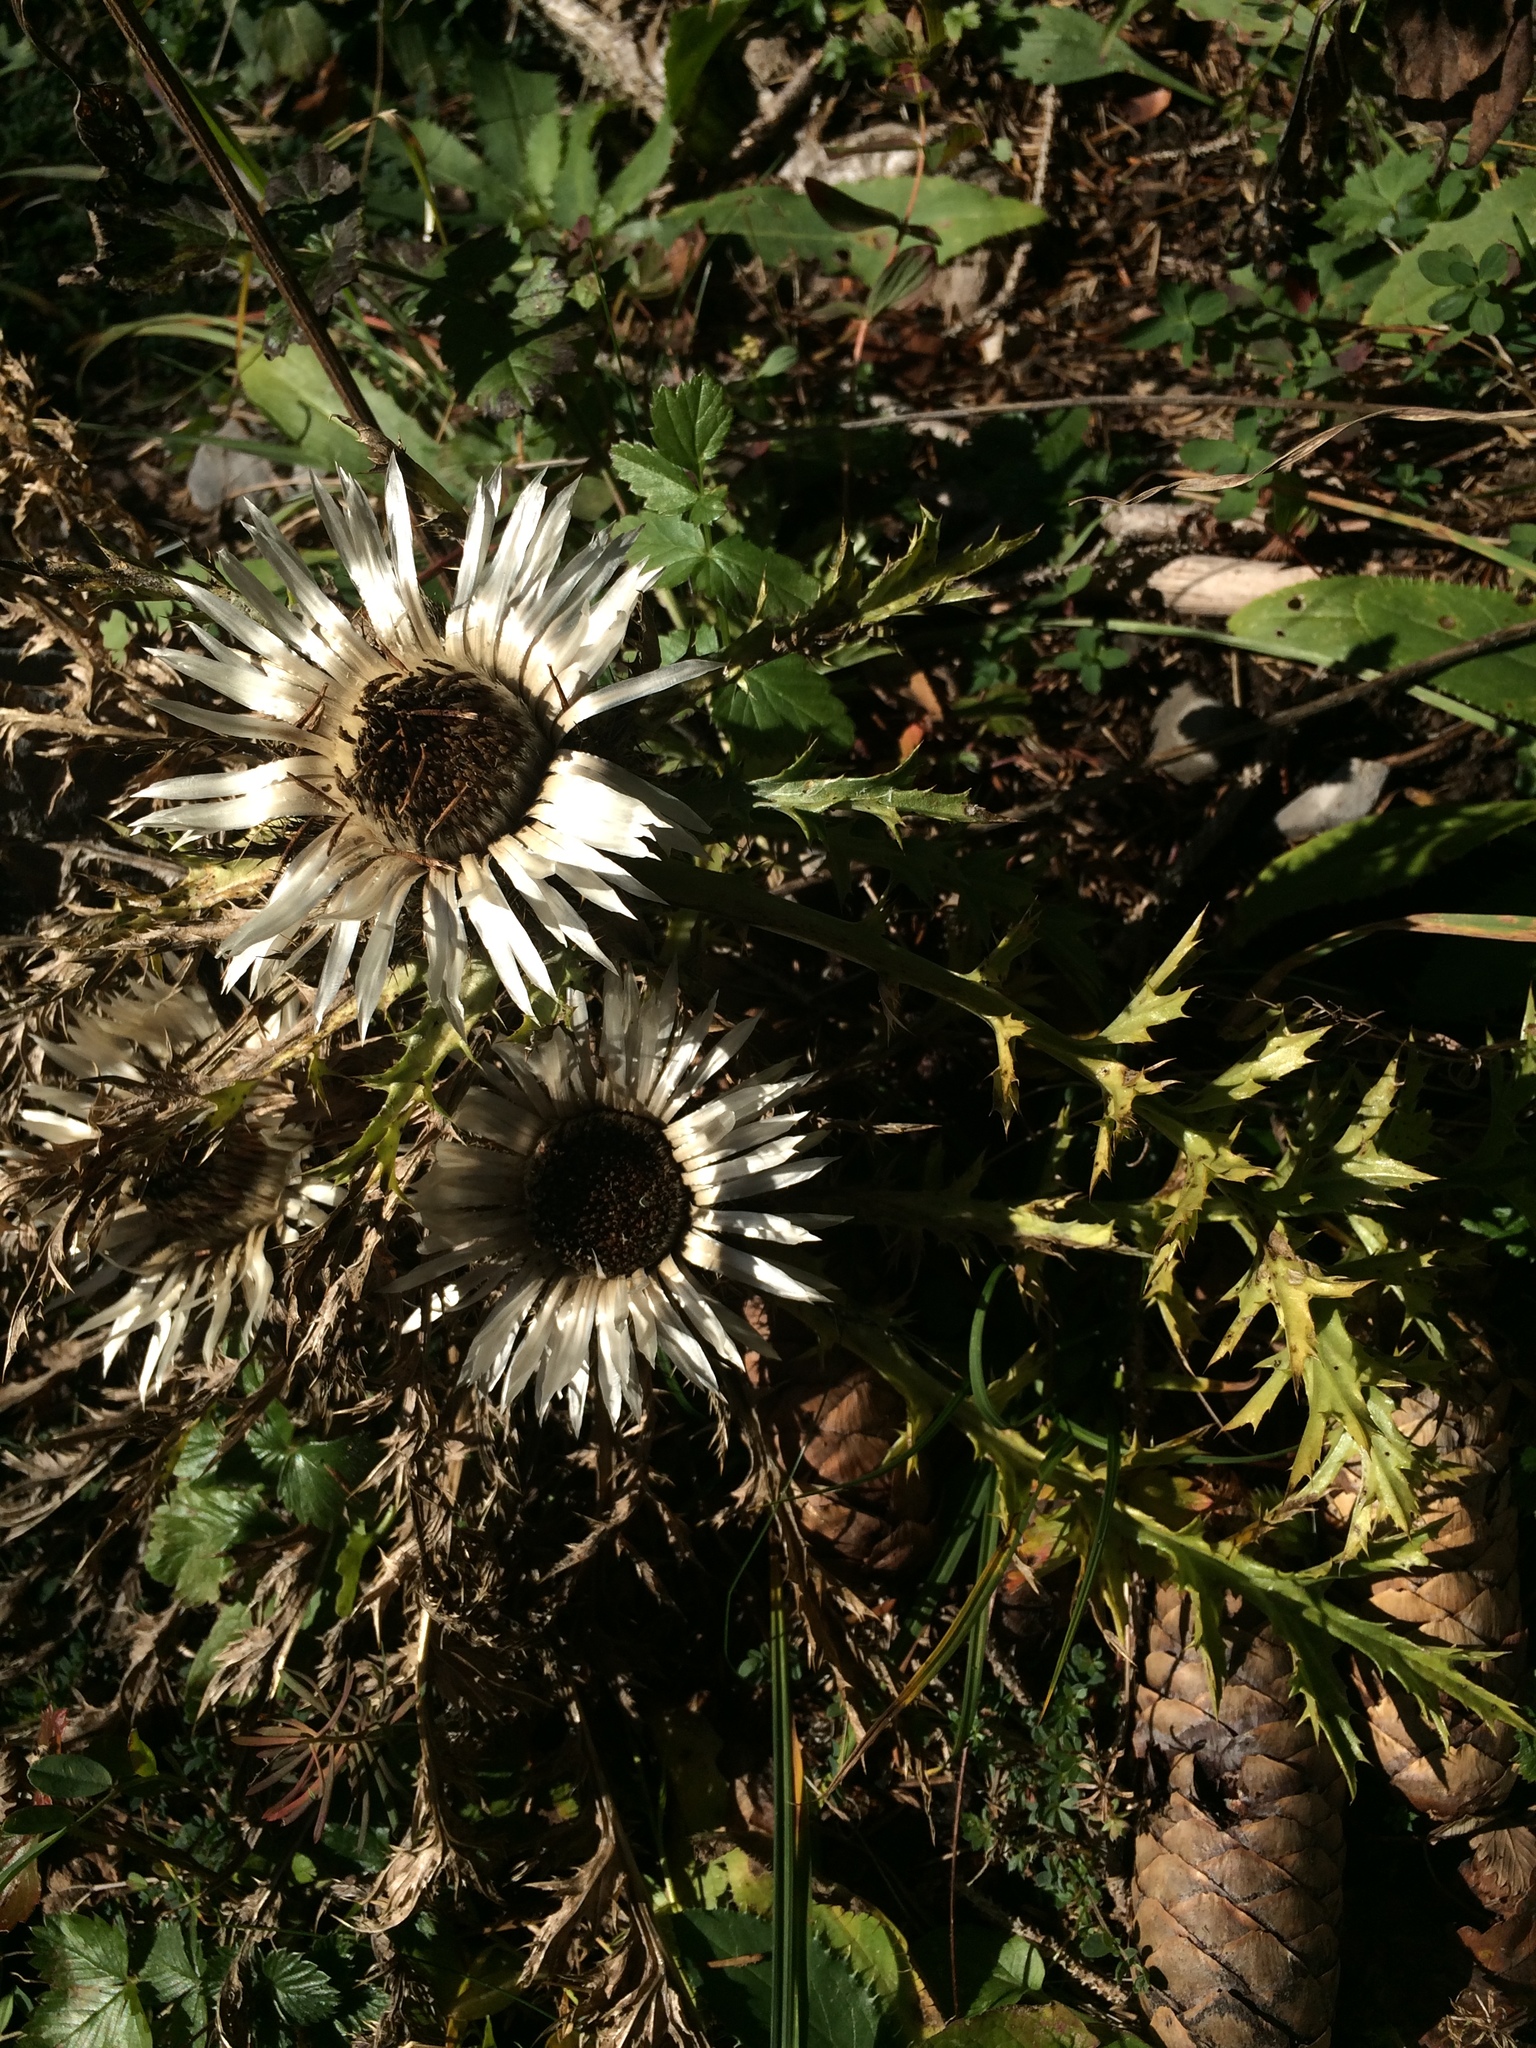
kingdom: Plantae
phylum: Tracheophyta
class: Magnoliopsida
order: Asterales
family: Asteraceae
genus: Carlina
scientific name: Carlina acaulis
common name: Stemless carline thistle
